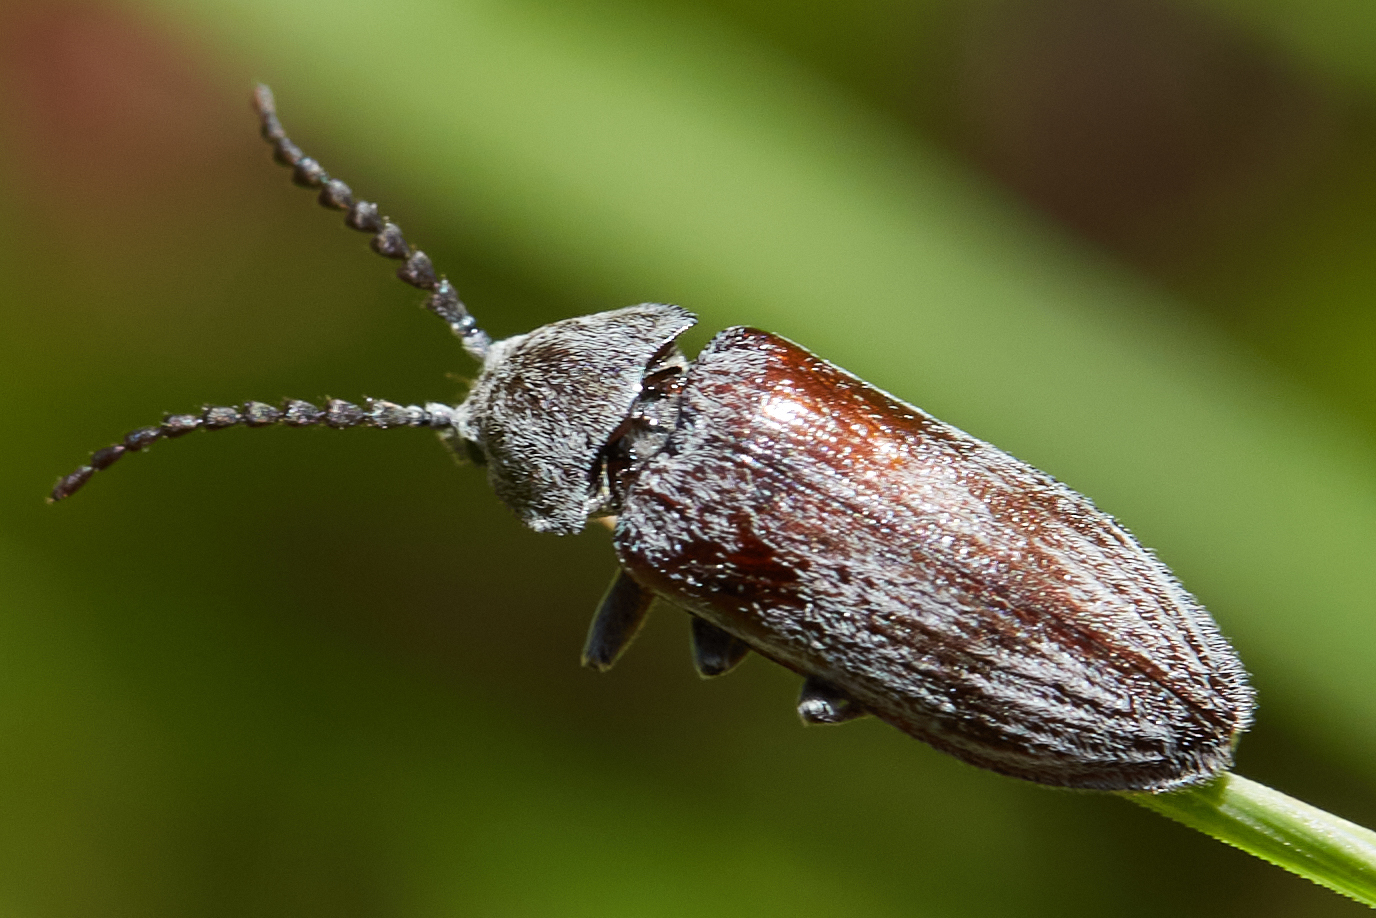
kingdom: Animalia
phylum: Arthropoda
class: Insecta
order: Coleoptera
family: Dascillidae
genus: Dascillus
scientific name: Dascillus davidsoni
